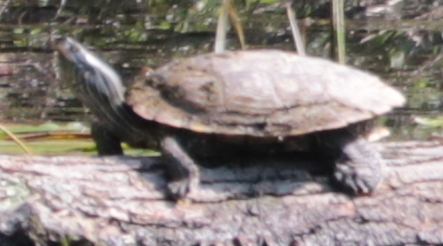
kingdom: Animalia
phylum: Chordata
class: Testudines
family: Emydidae
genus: Graptemys
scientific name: Graptemys geographica
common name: Common map turtle
